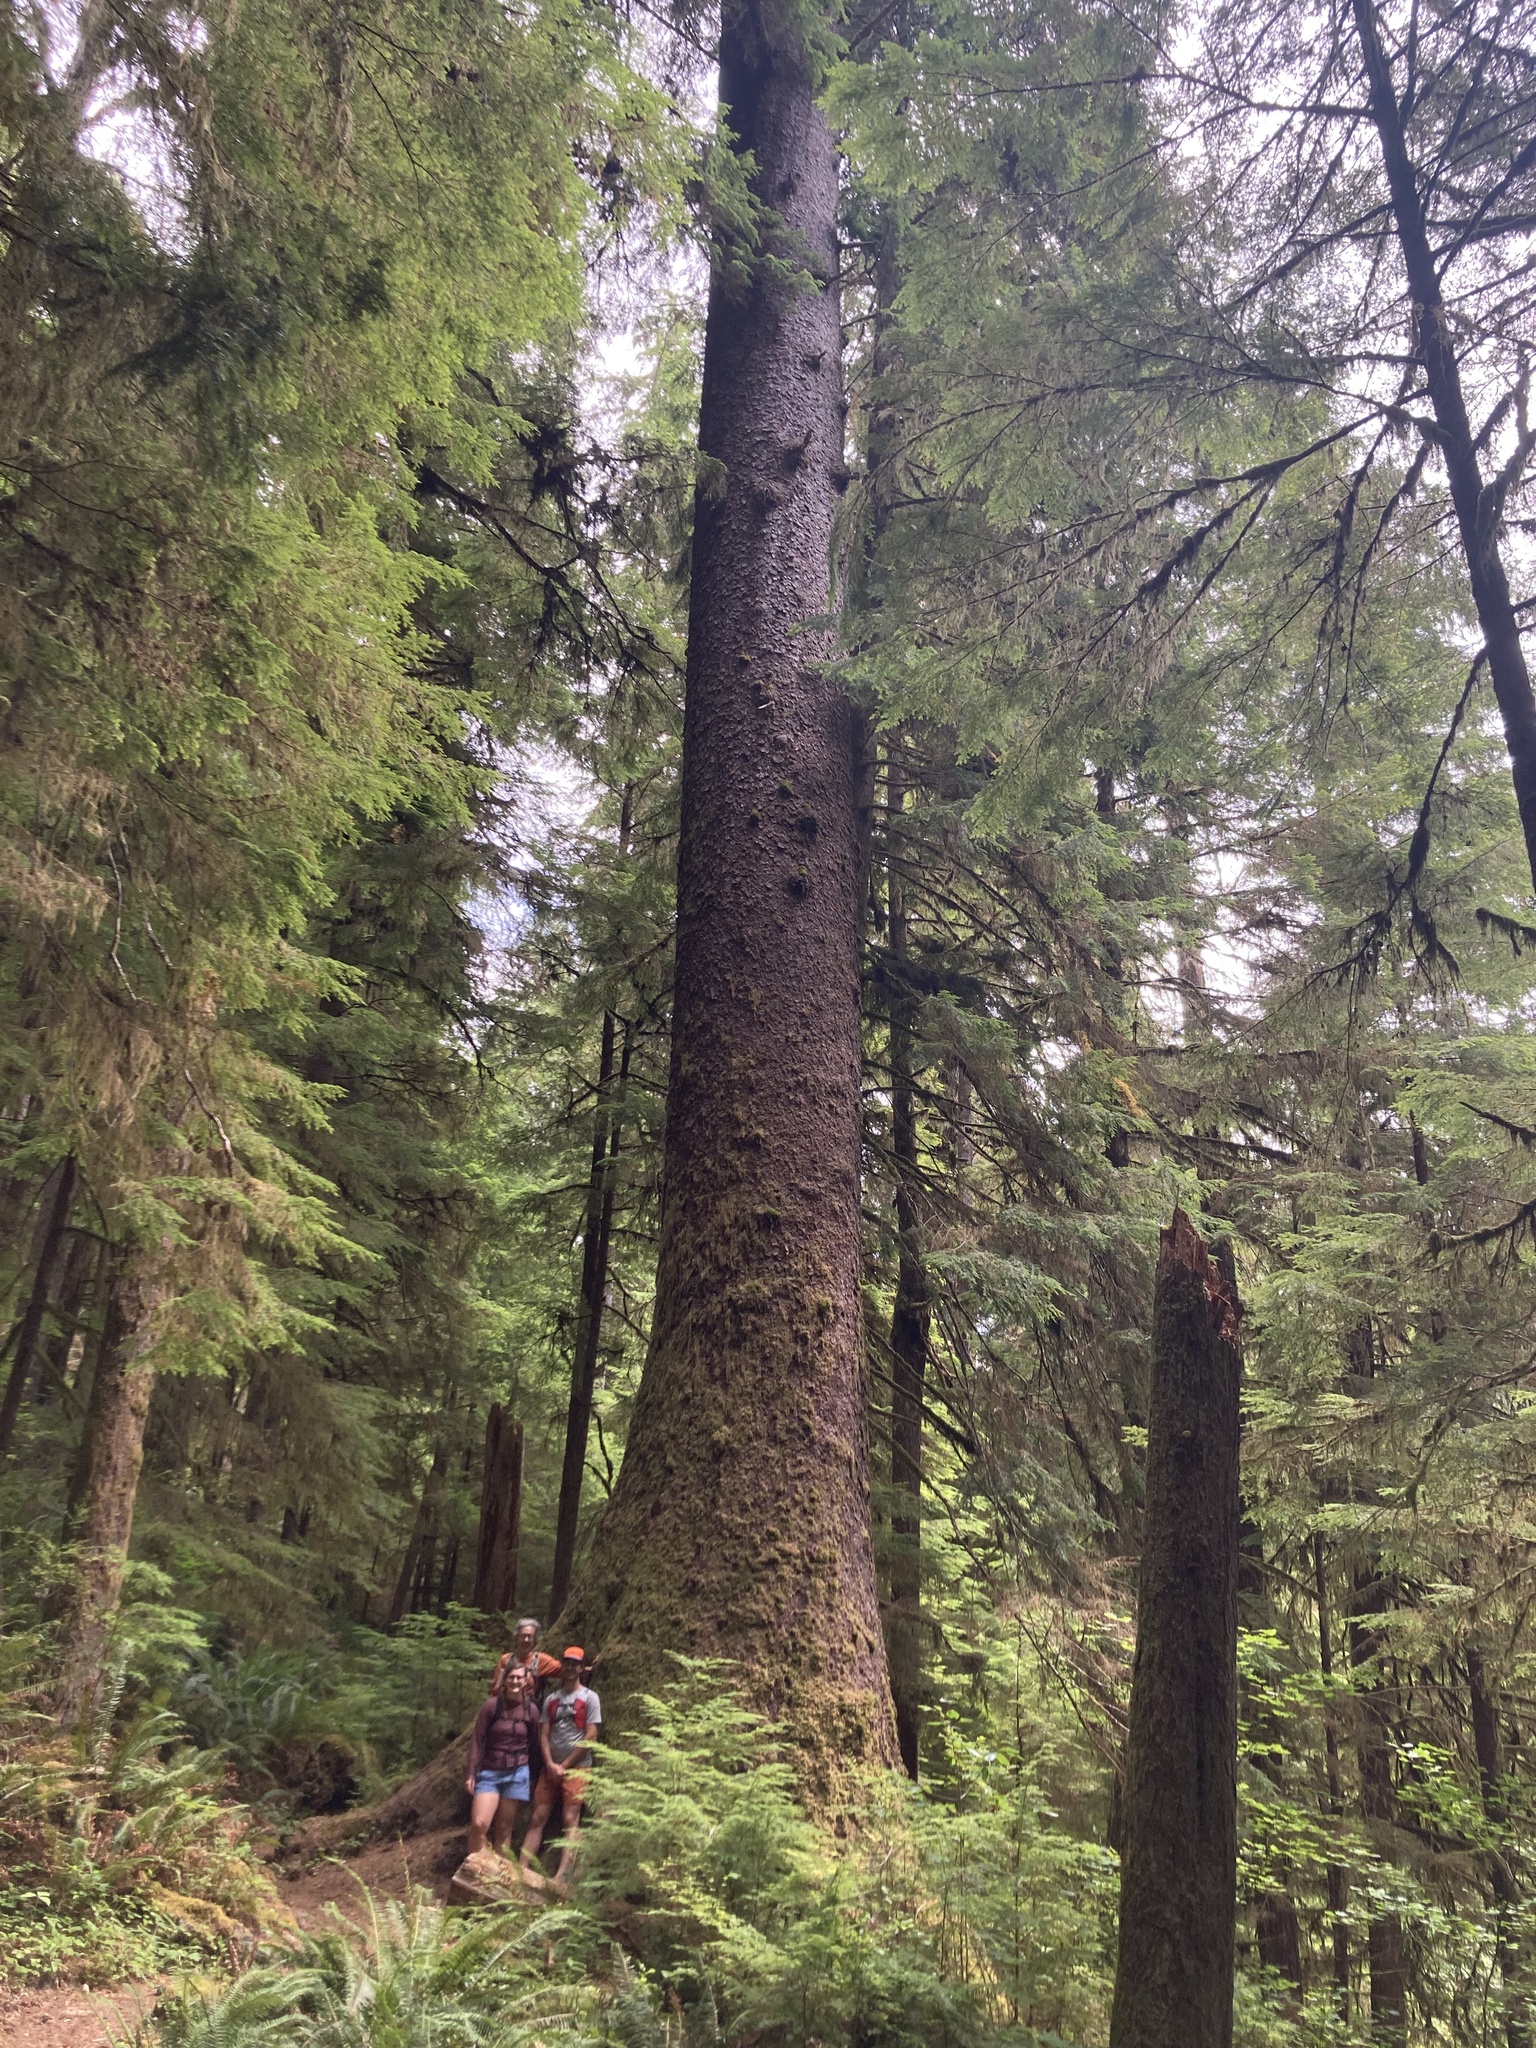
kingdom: Plantae
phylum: Tracheophyta
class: Pinopsida
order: Pinales
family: Pinaceae
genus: Picea
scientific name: Picea sitchensis
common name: Sitka spruce
